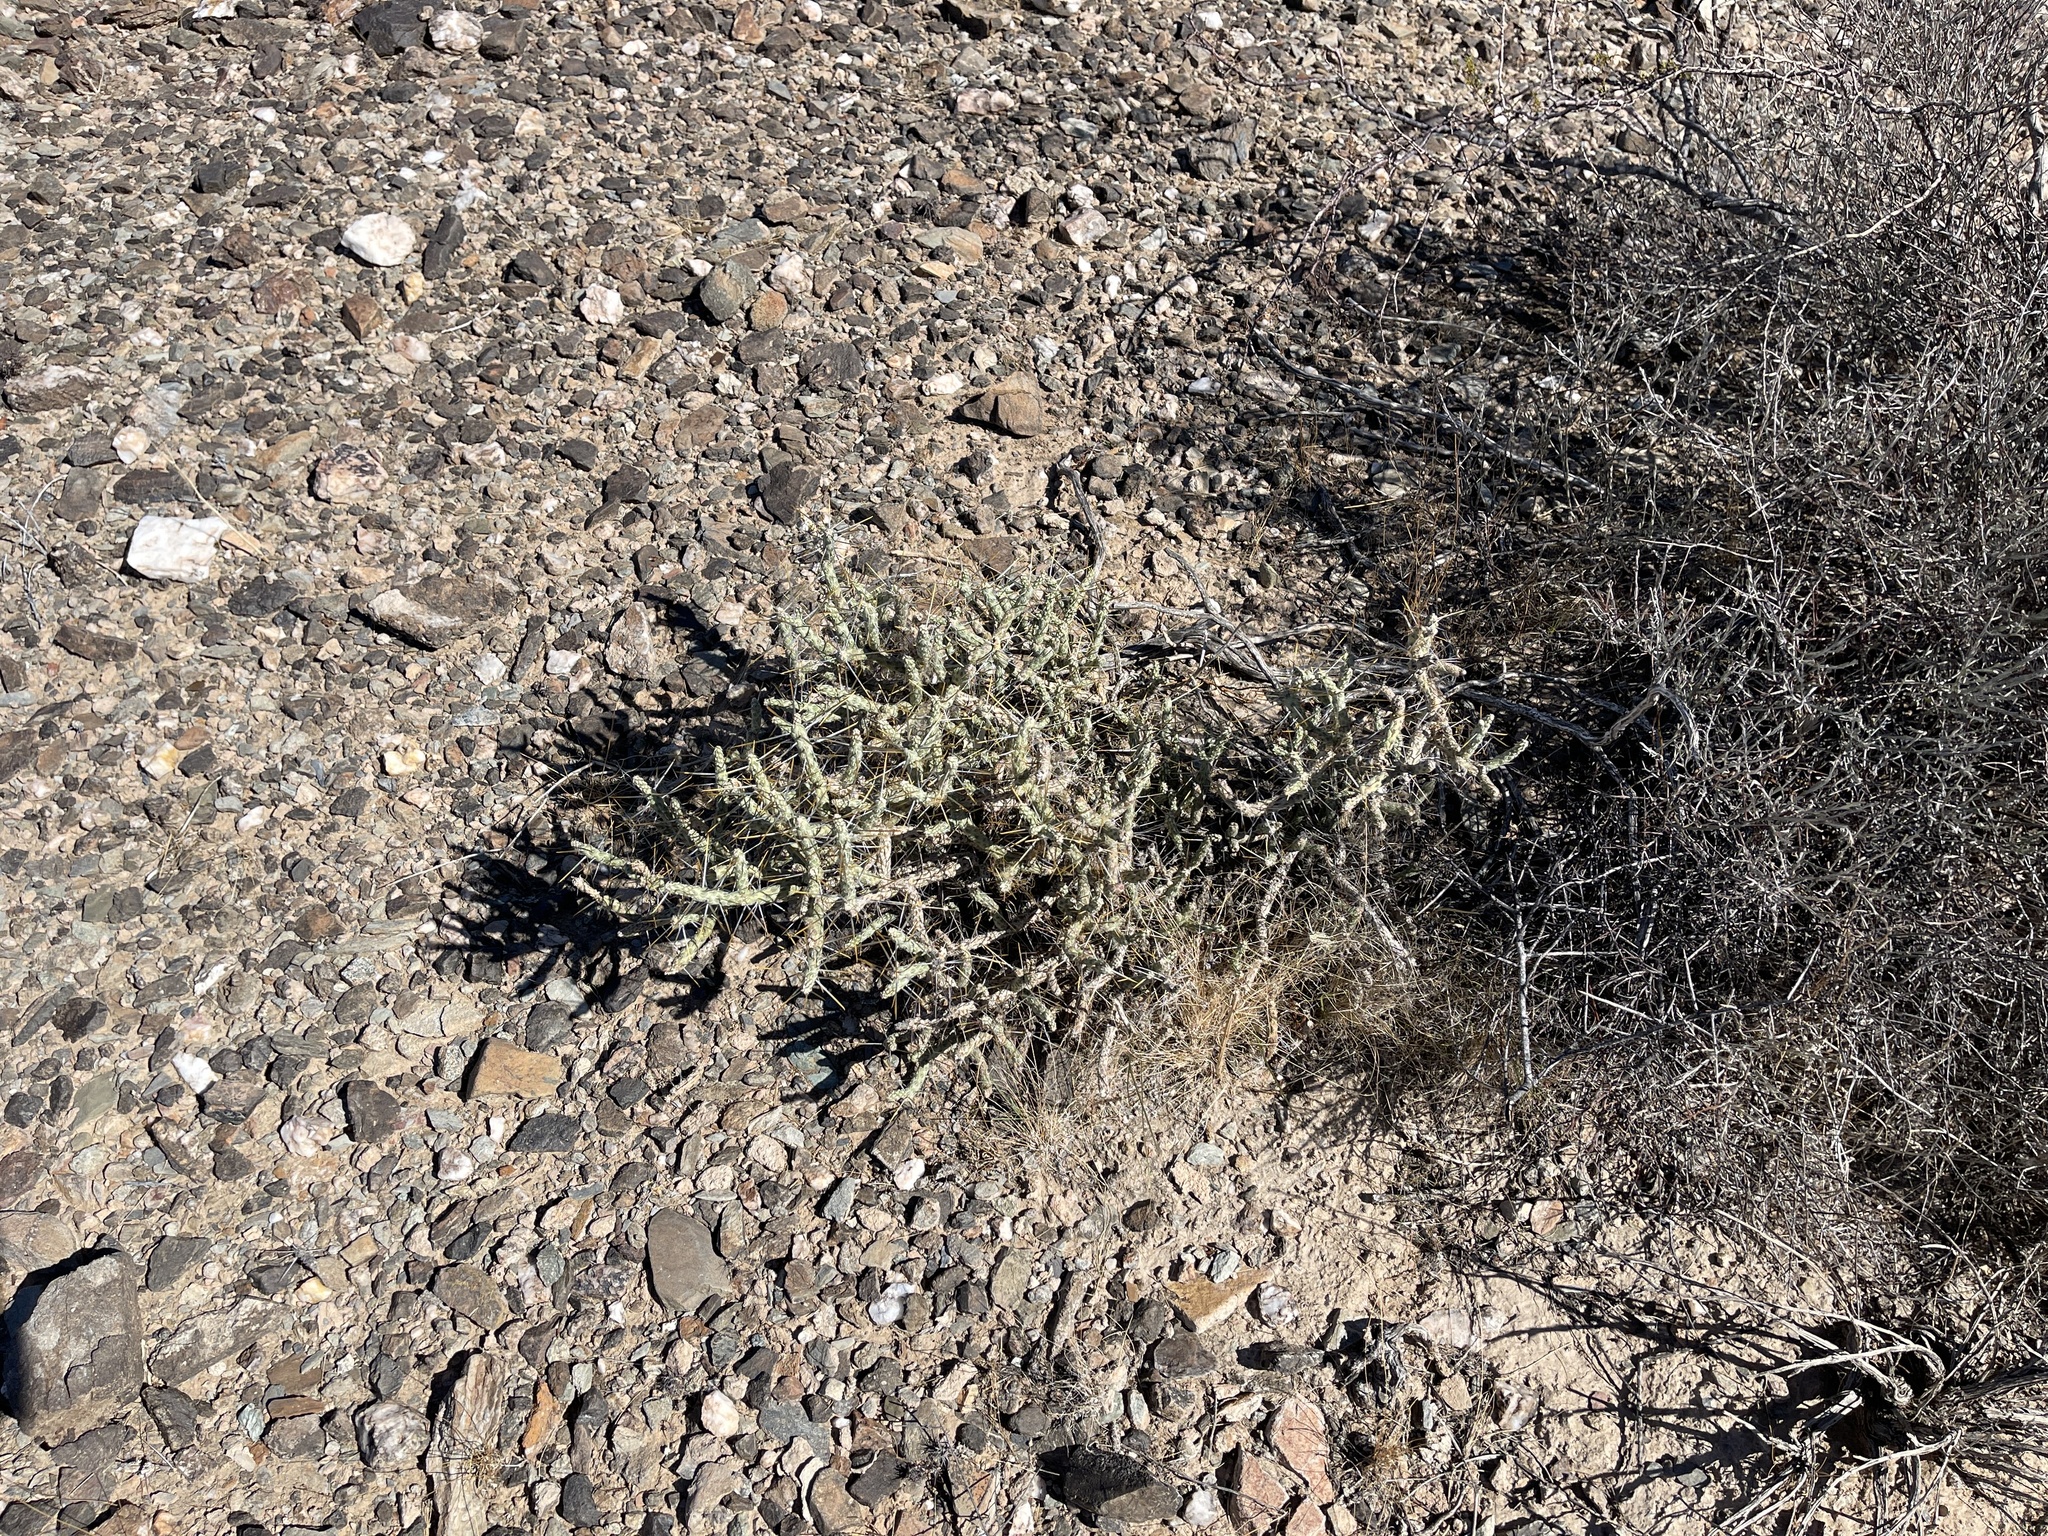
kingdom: Plantae
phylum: Tracheophyta
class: Magnoliopsida
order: Caryophyllales
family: Cactaceae
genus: Cylindropuntia
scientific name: Cylindropuntia ramosissima
